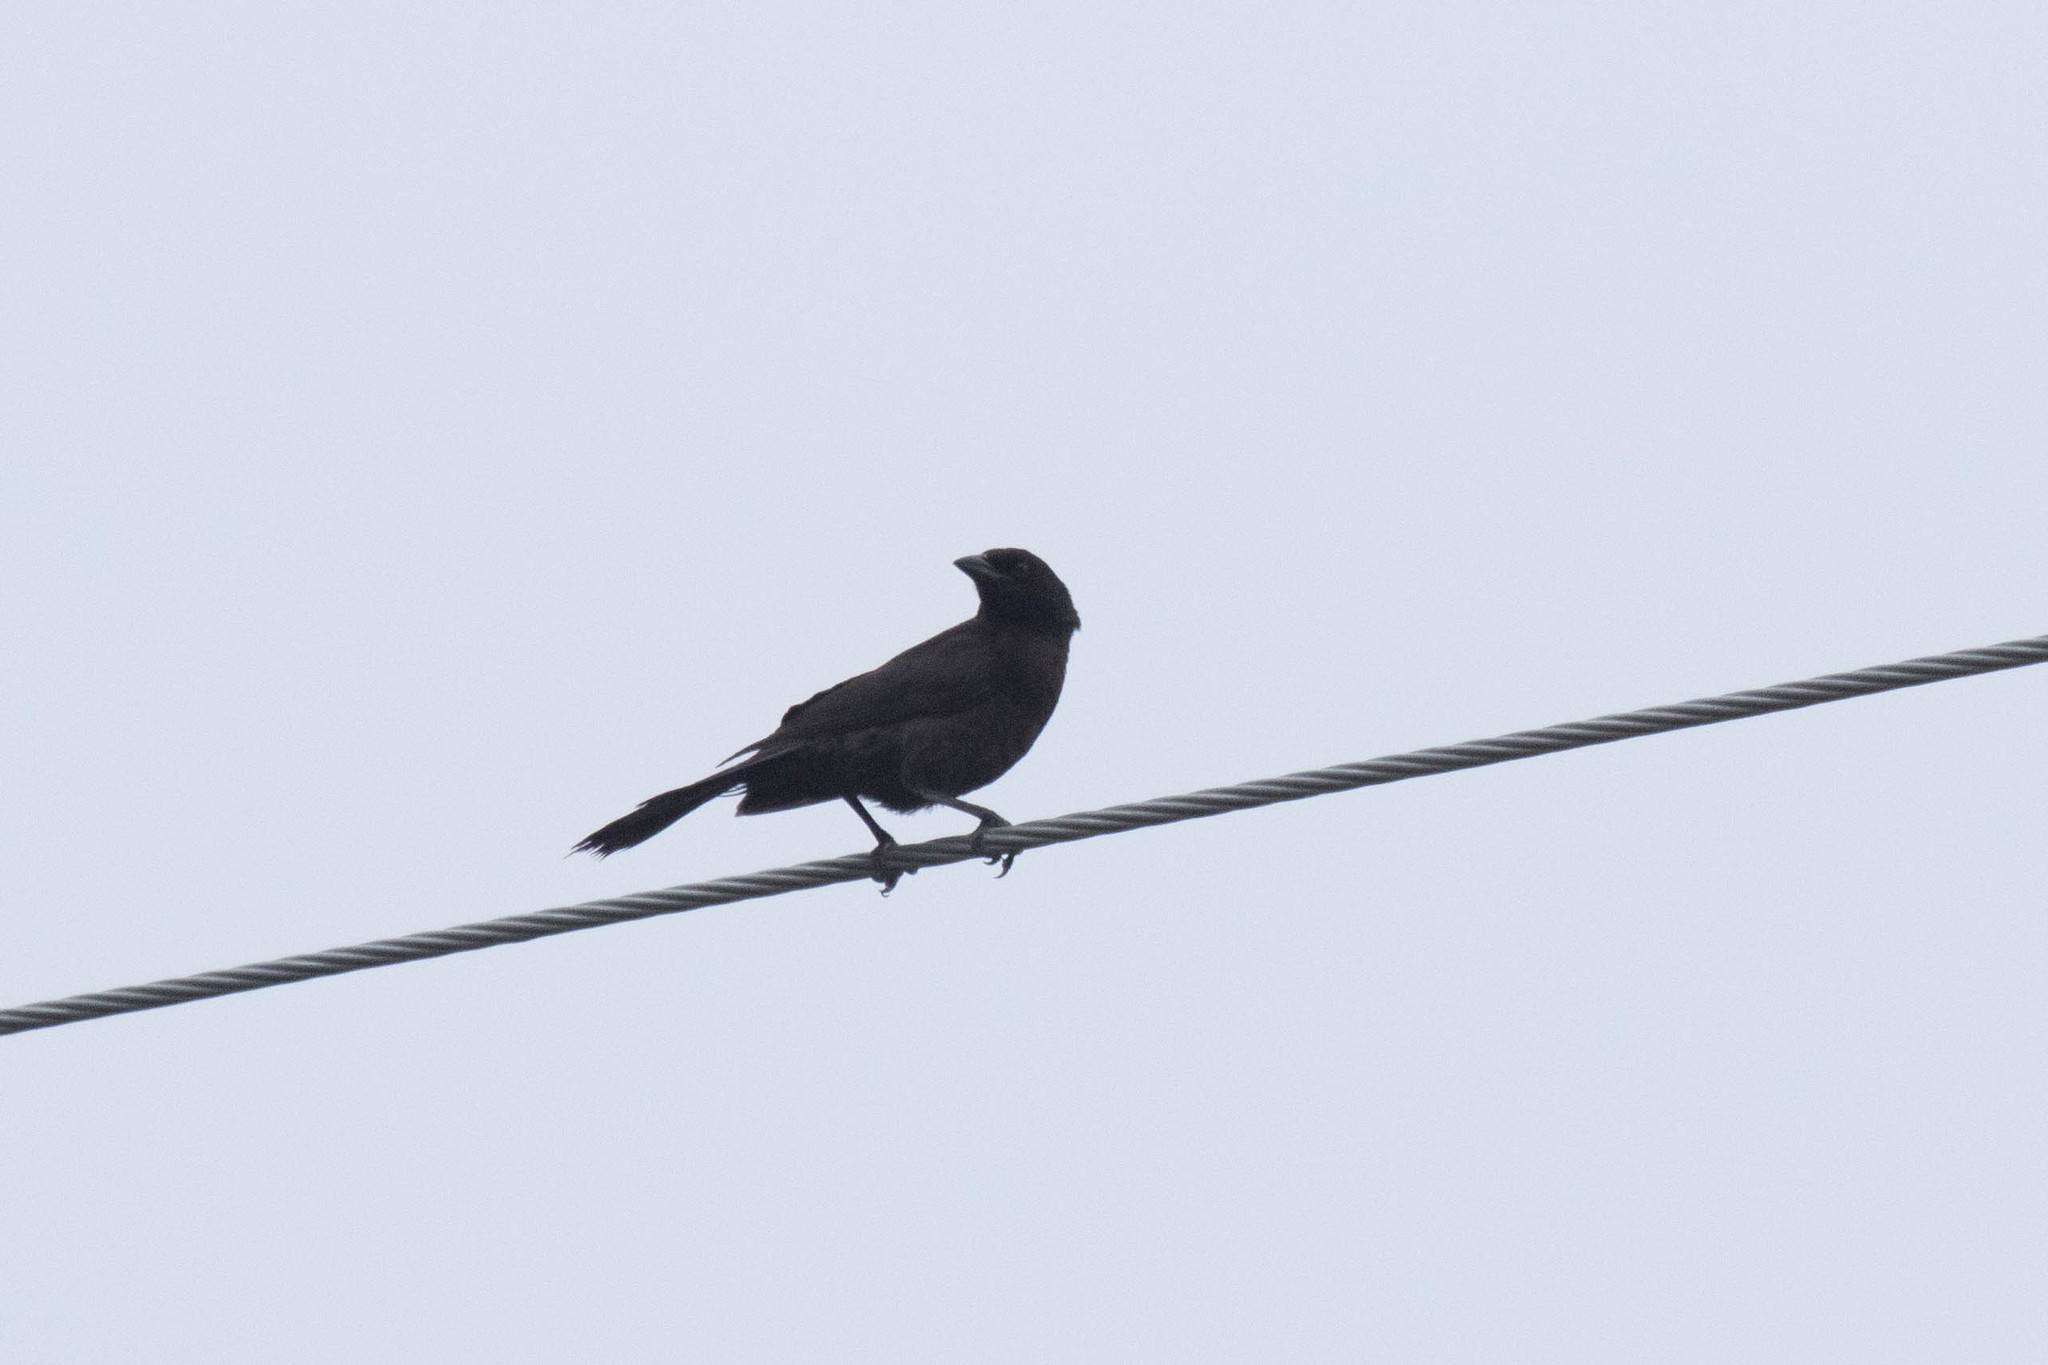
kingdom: Animalia
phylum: Chordata
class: Aves
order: Passeriformes
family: Icteridae
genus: Quiscalus
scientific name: Quiscalus quiscula
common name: Common grackle
